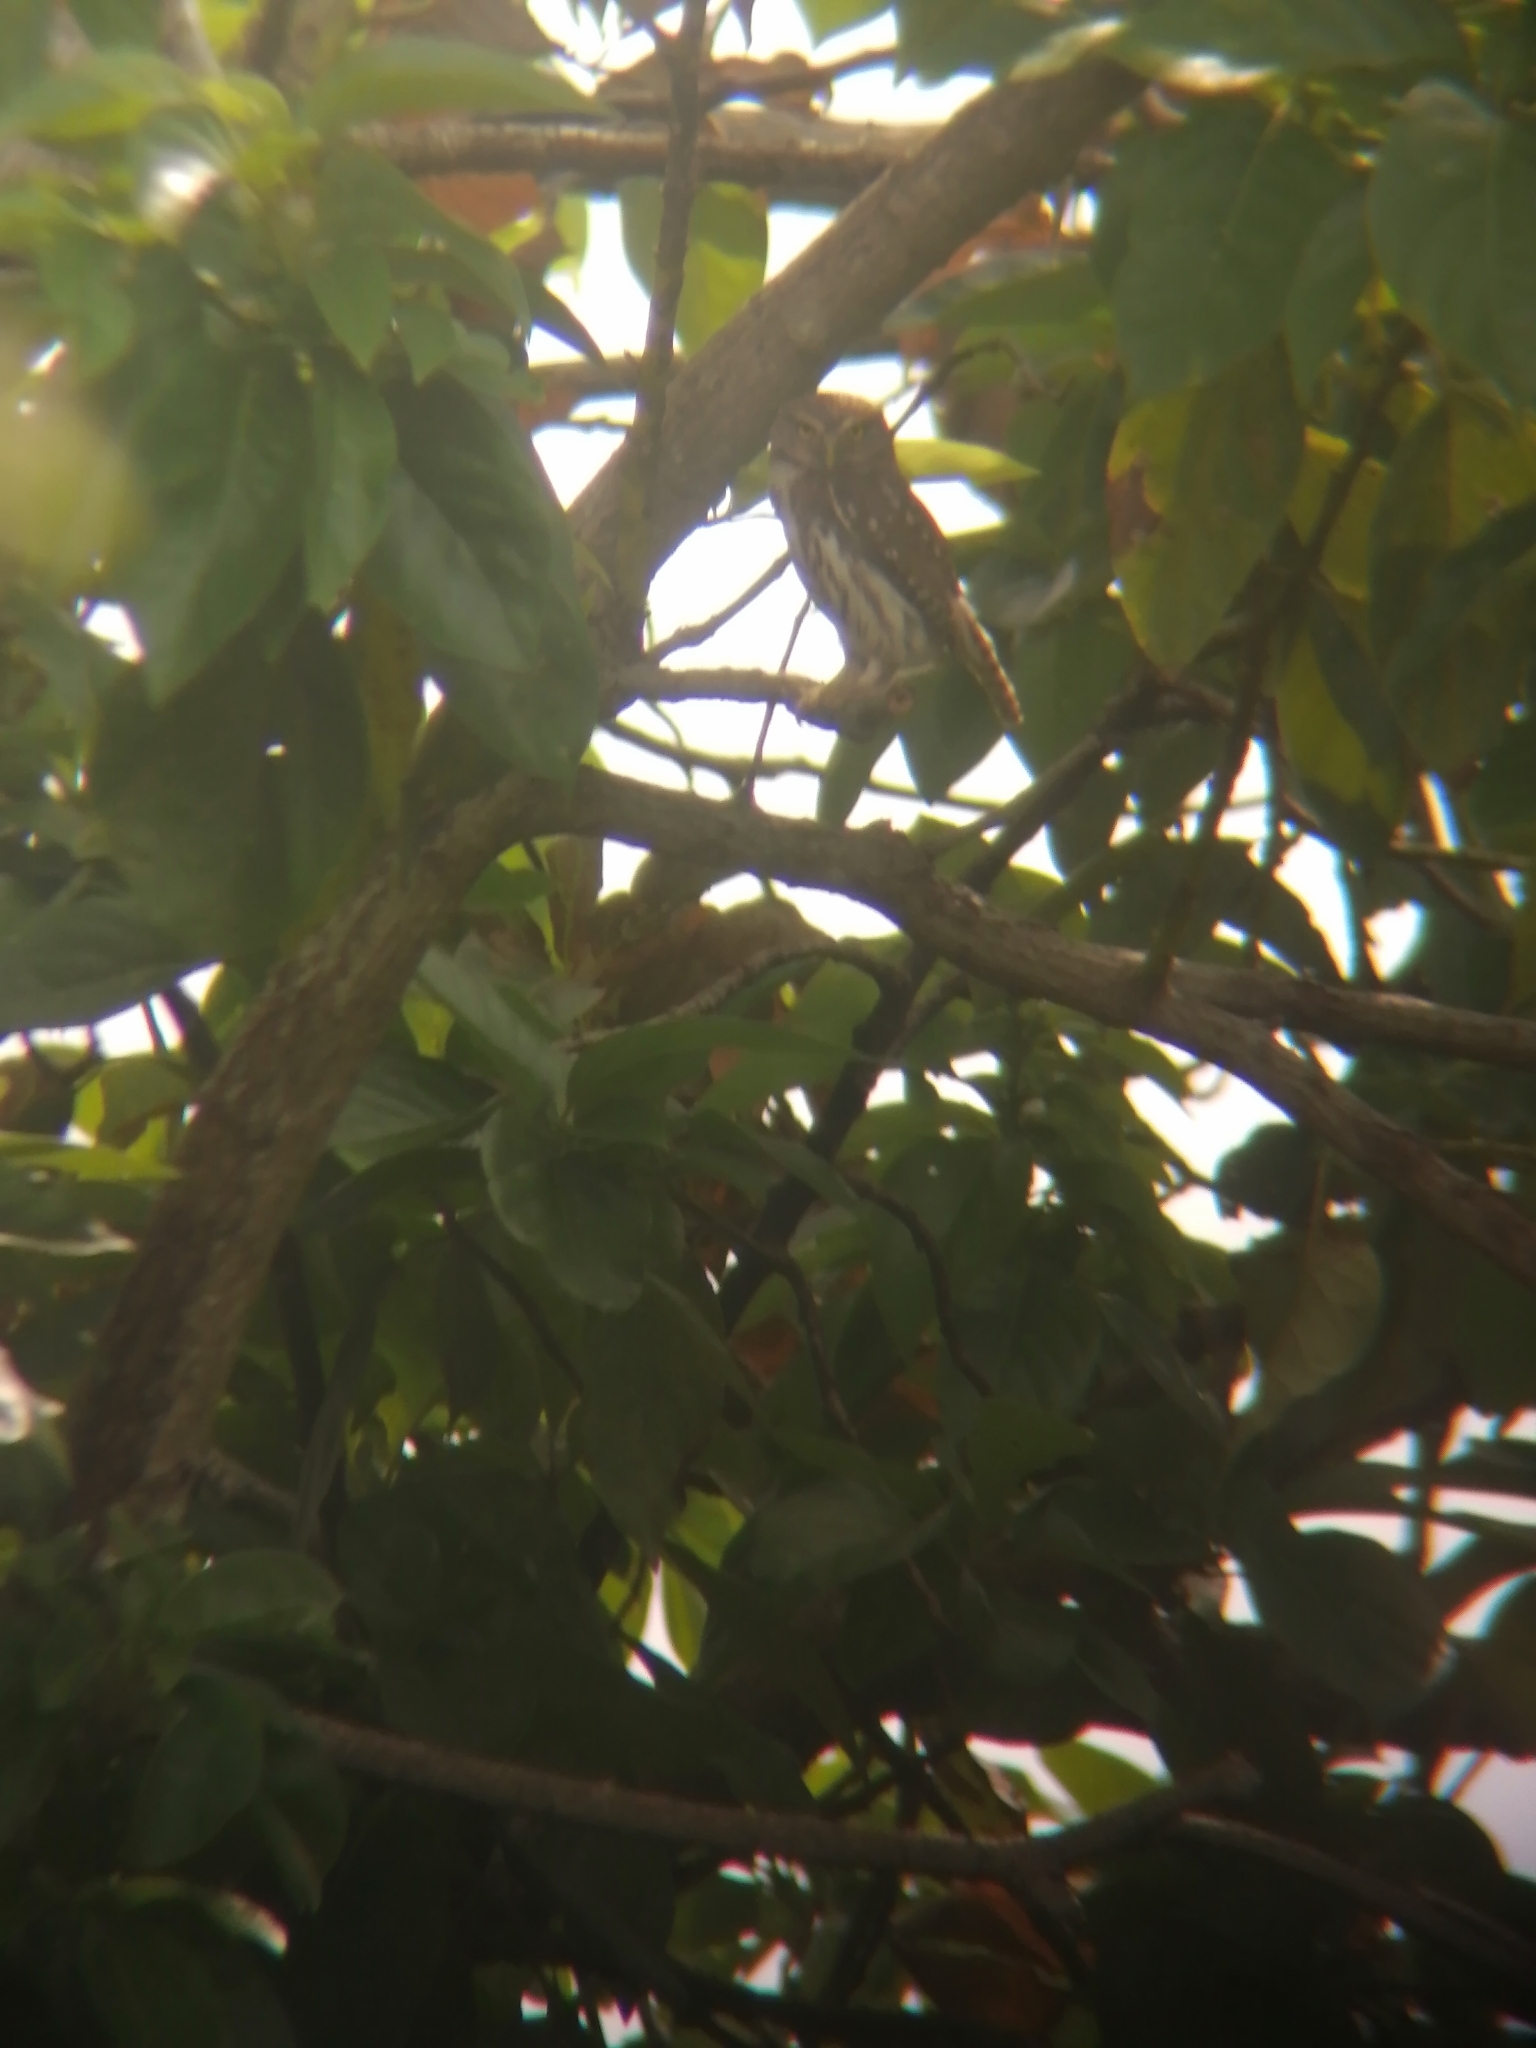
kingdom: Animalia
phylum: Chordata
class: Aves
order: Strigiformes
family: Strigidae
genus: Glaucidium
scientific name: Glaucidium brasilianum
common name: Ferruginous pygmy-owl
